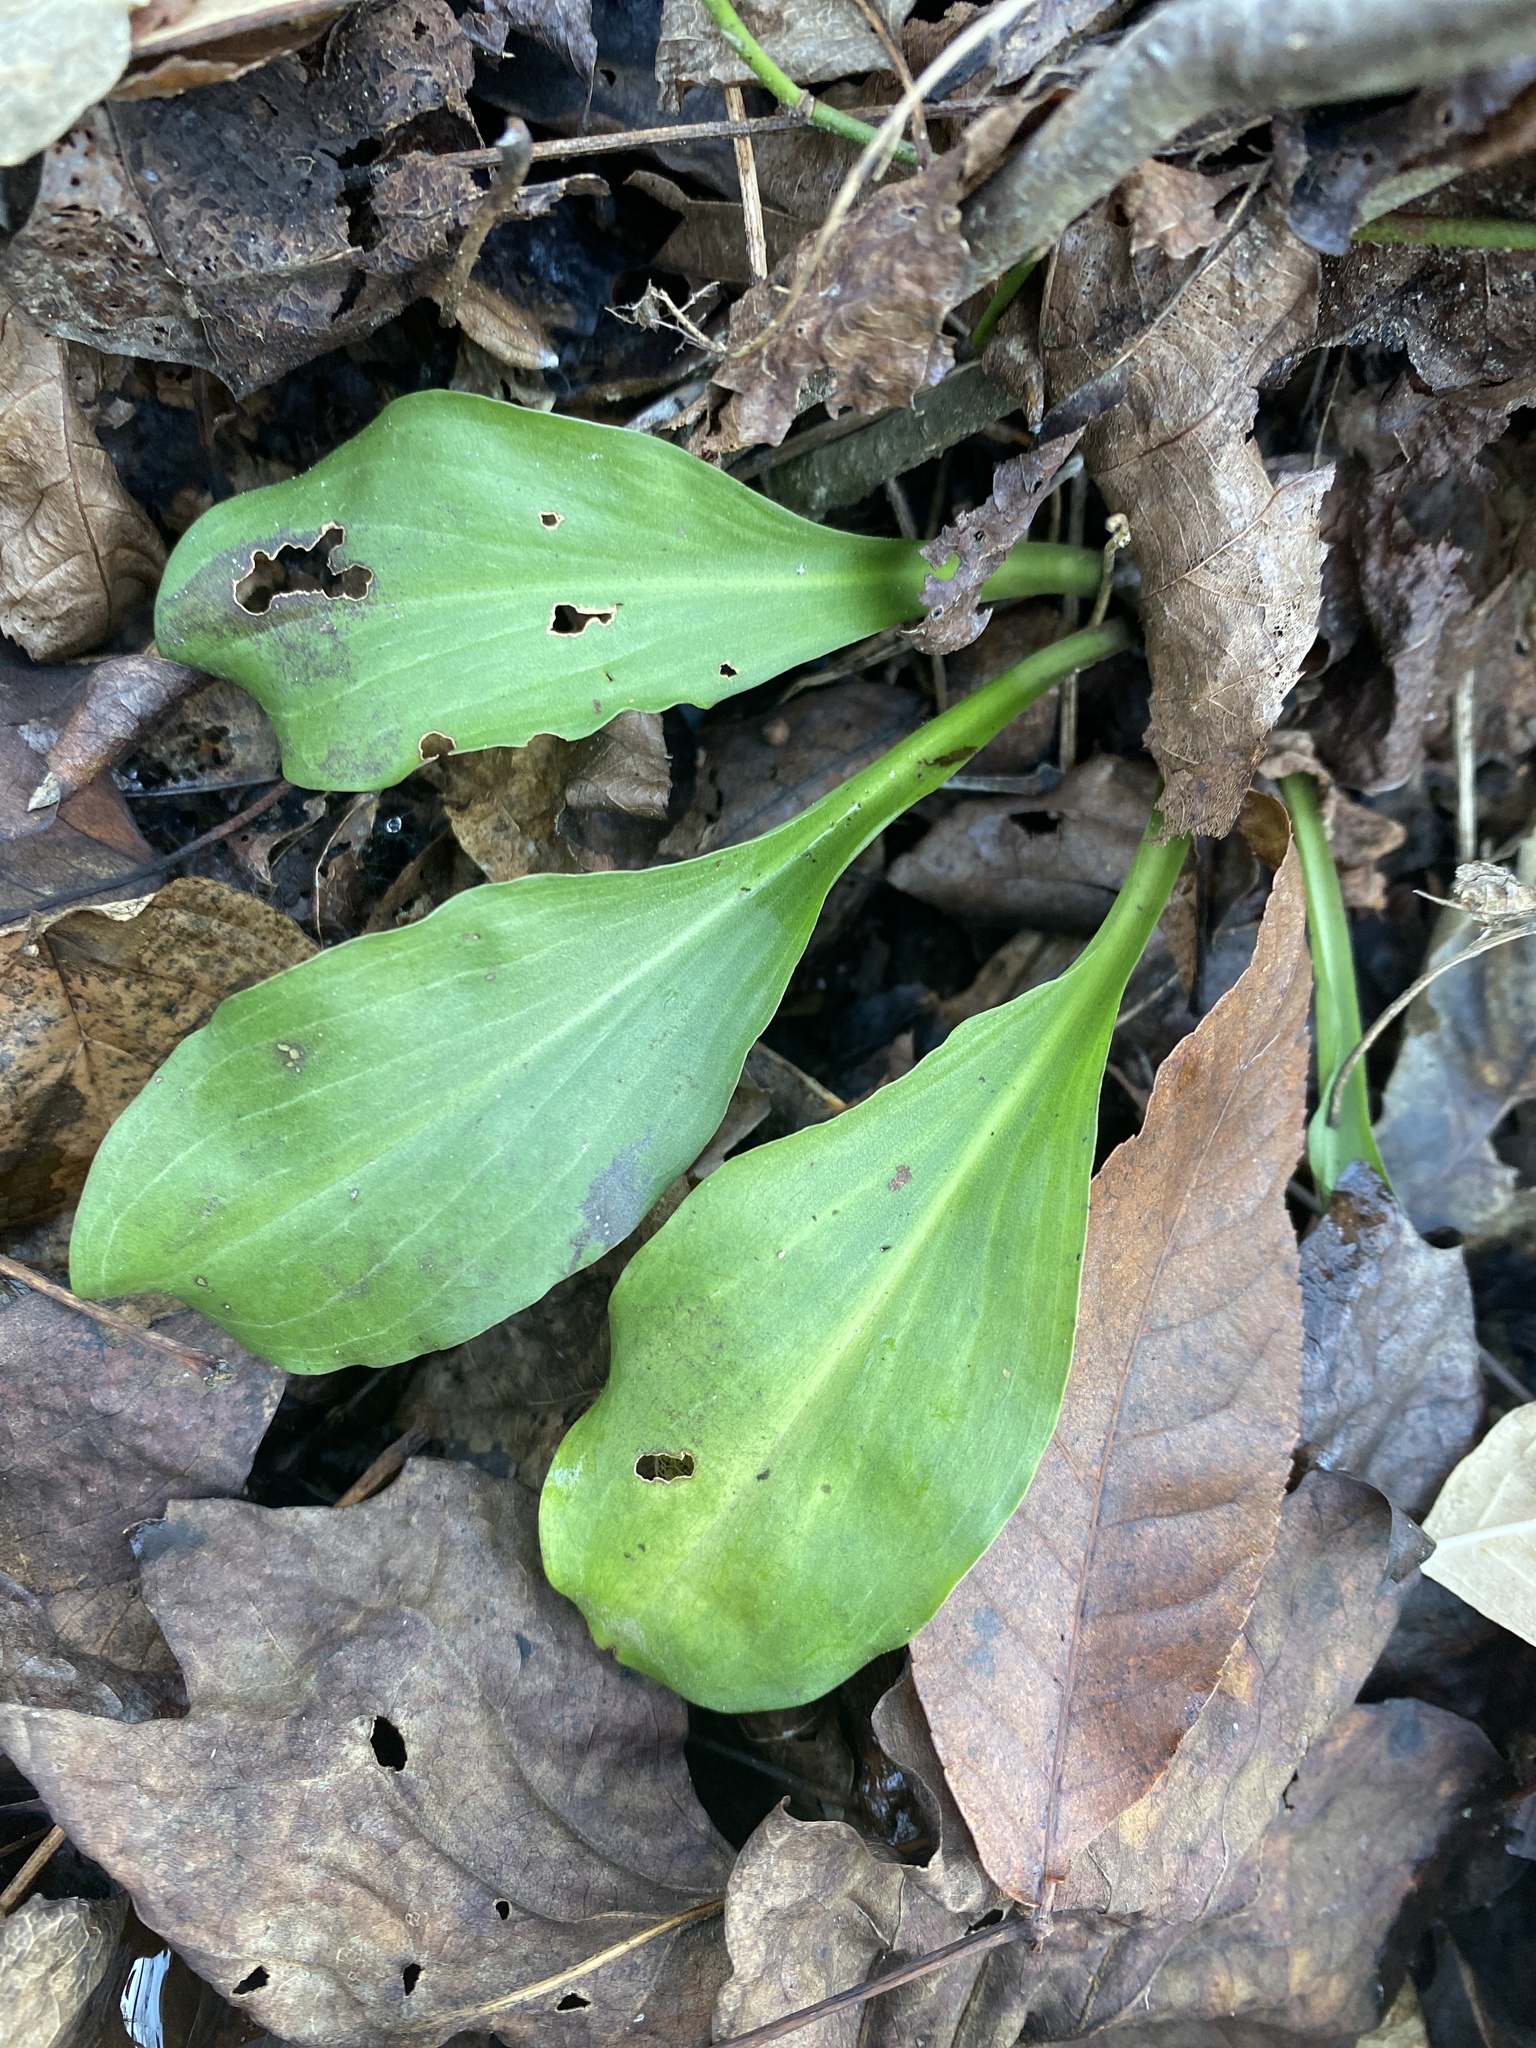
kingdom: Plantae
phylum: Tracheophyta
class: Liliopsida
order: Liliales
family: Melanthiaceae
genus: Chamaelirium
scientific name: Chamaelirium luteum
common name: Fairy-wand
